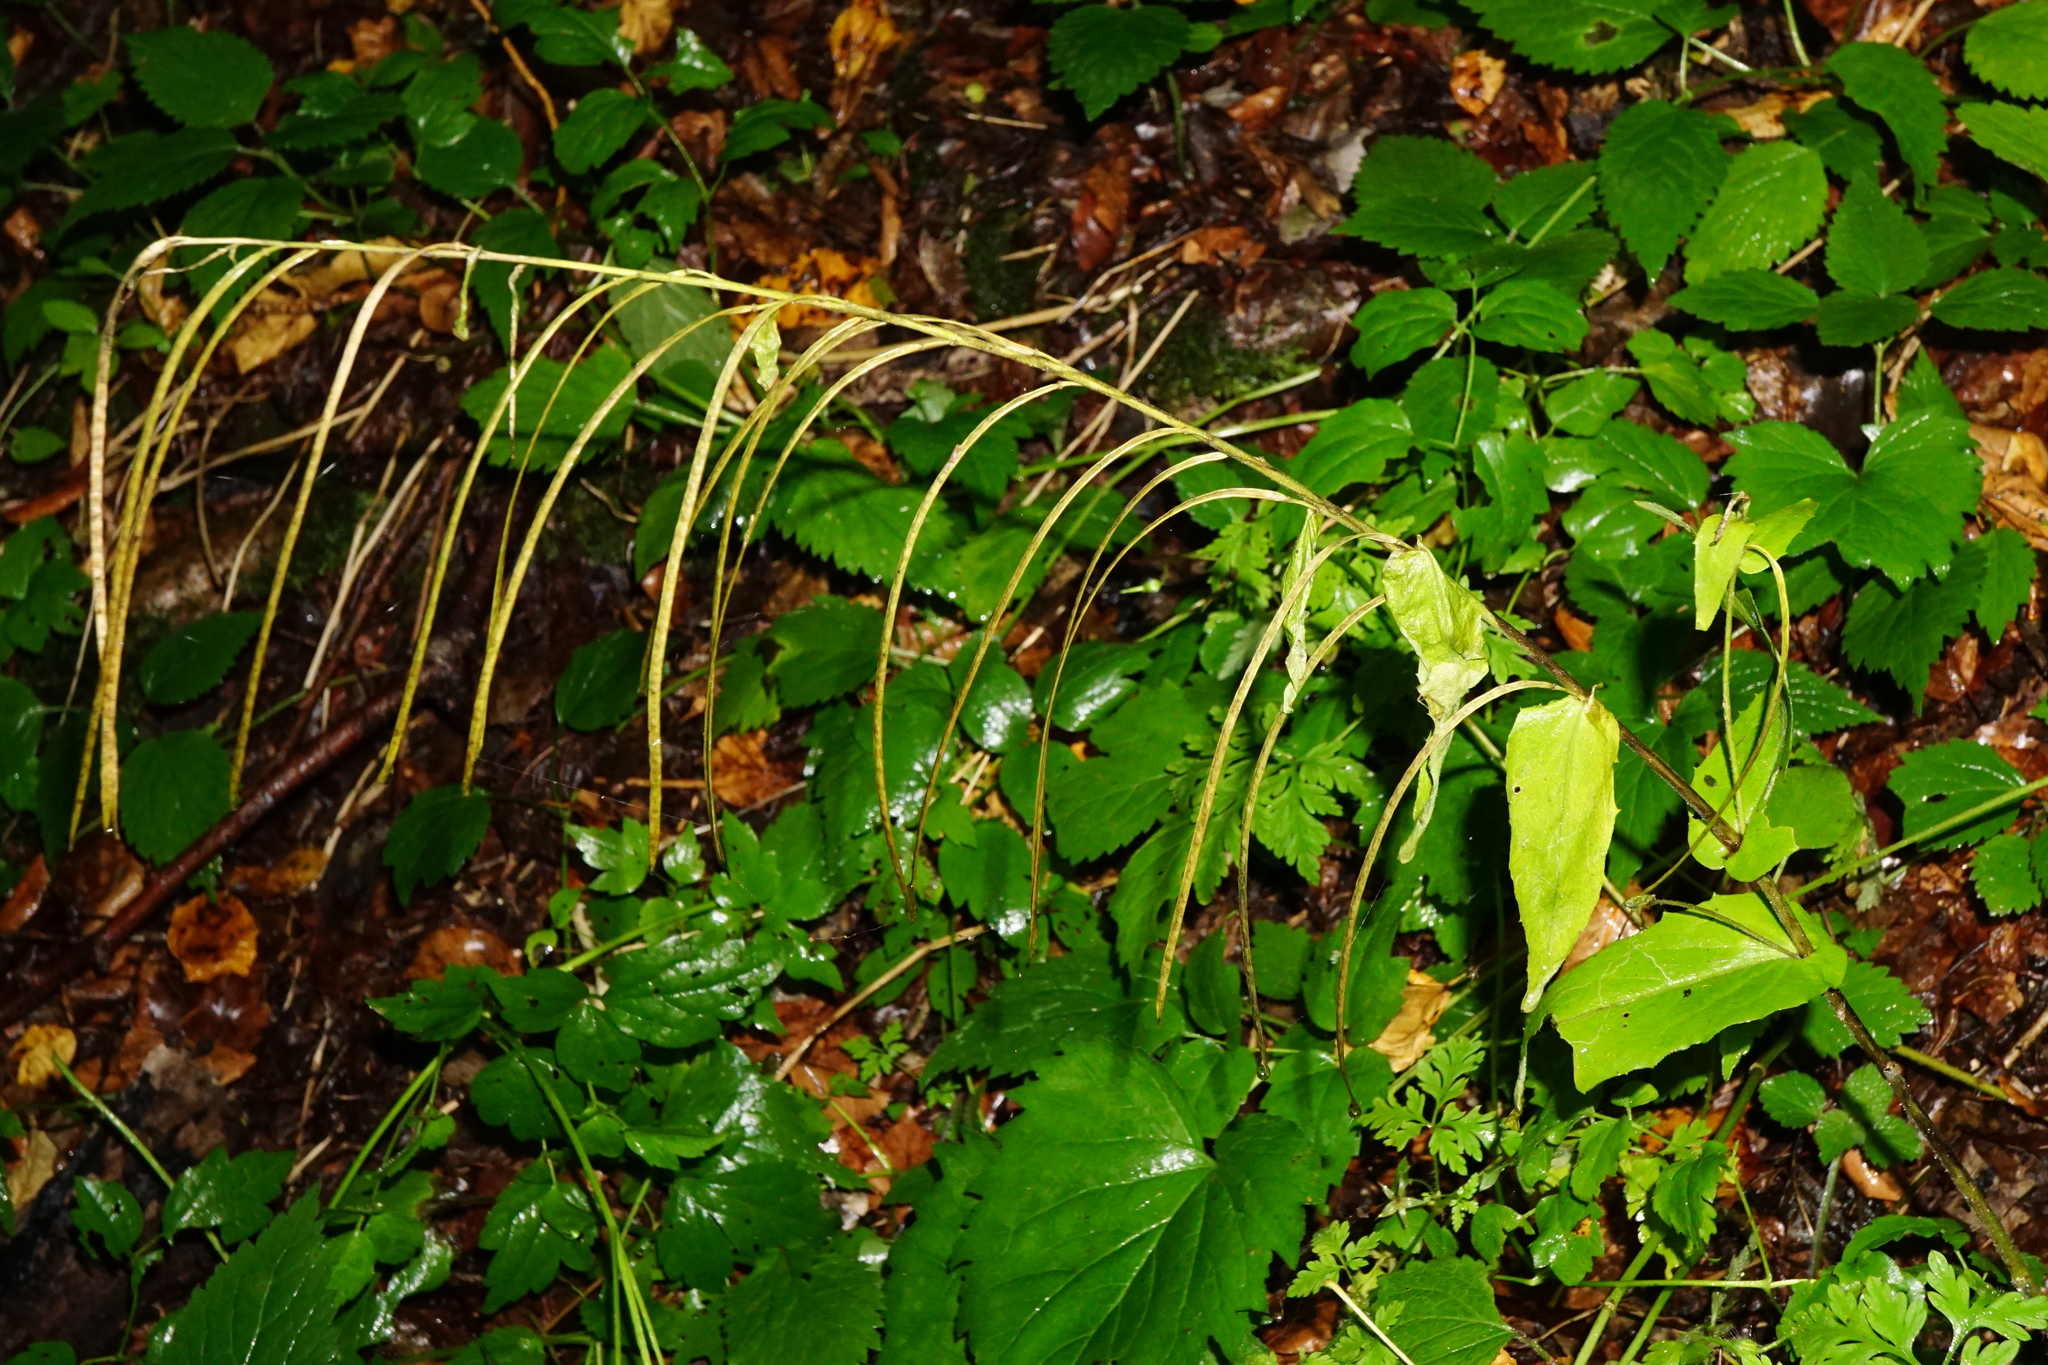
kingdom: Plantae
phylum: Tracheophyta
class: Magnoliopsida
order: Brassicales
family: Brassicaceae
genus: Pseudoturritis
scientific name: Pseudoturritis turrita
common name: Tower cress
